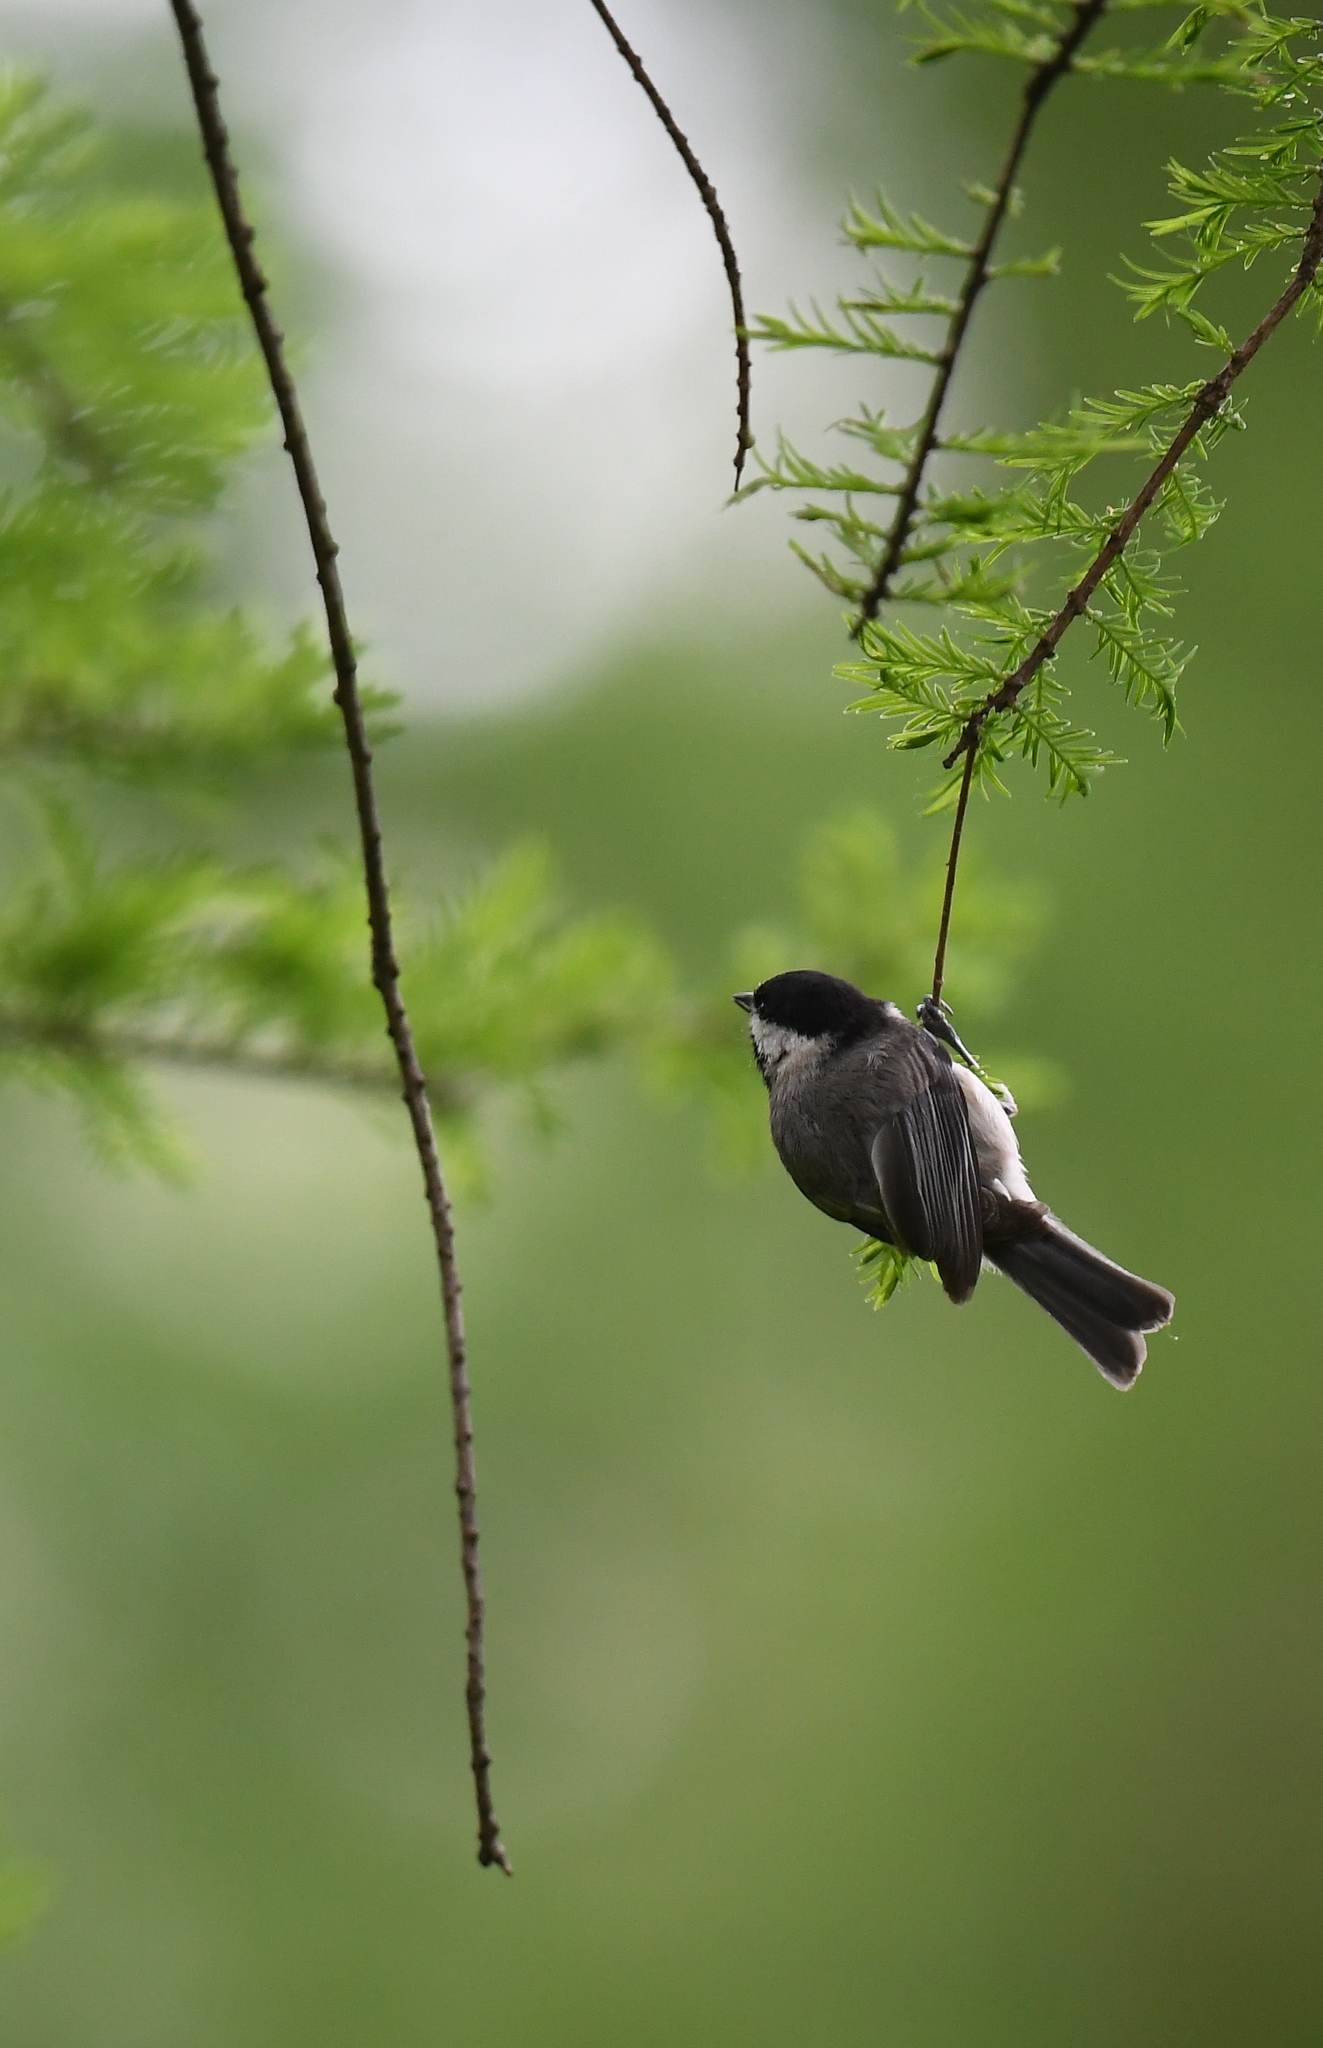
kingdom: Animalia
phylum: Chordata
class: Aves
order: Passeriformes
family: Paridae
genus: Poecile
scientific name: Poecile carolinensis
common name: Carolina chickadee
